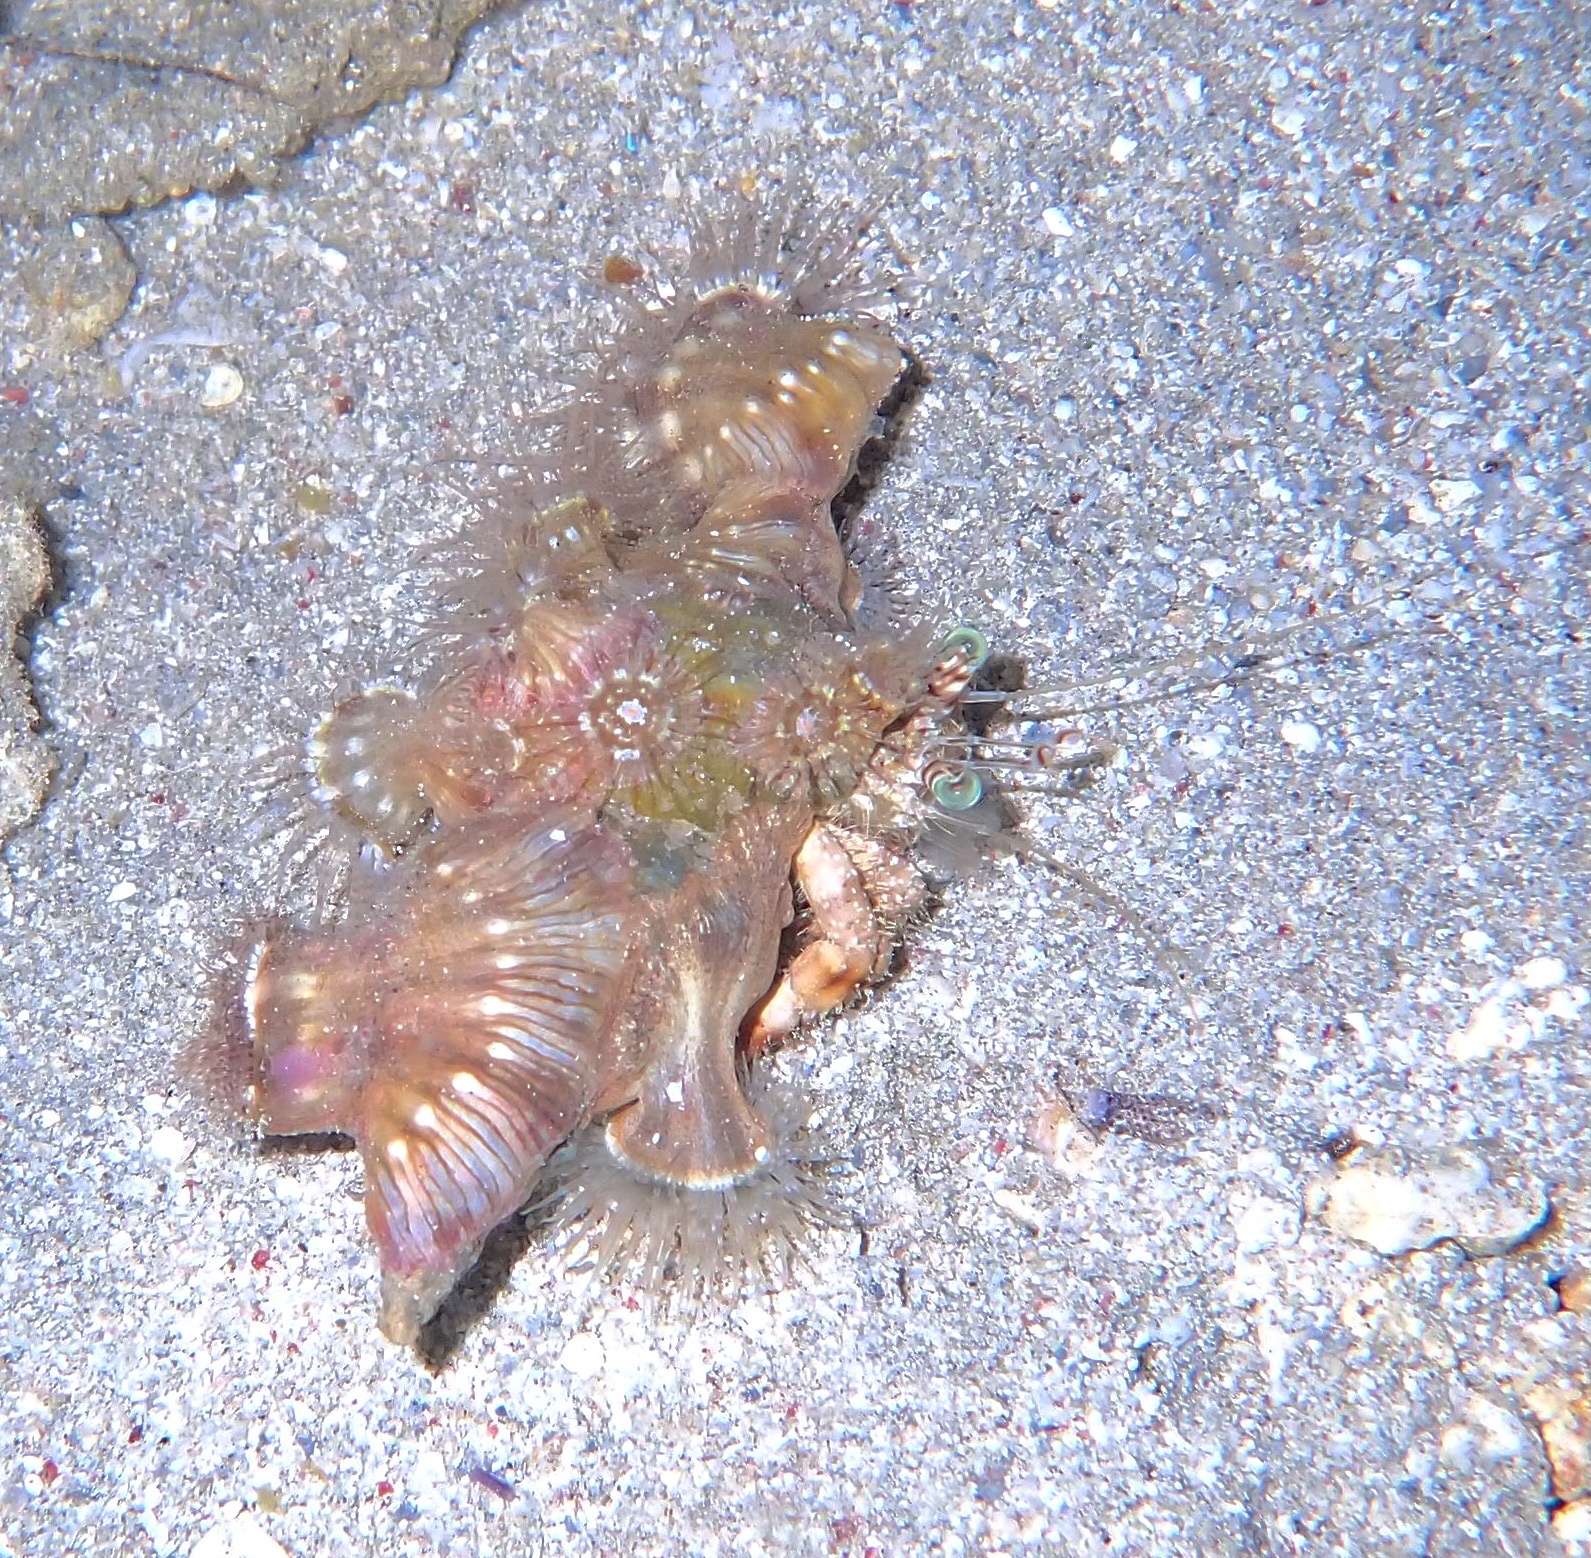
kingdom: Animalia
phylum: Arthropoda
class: Malacostraca
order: Decapoda
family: Diogenidae
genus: Dardanus
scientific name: Dardanus tinctor
